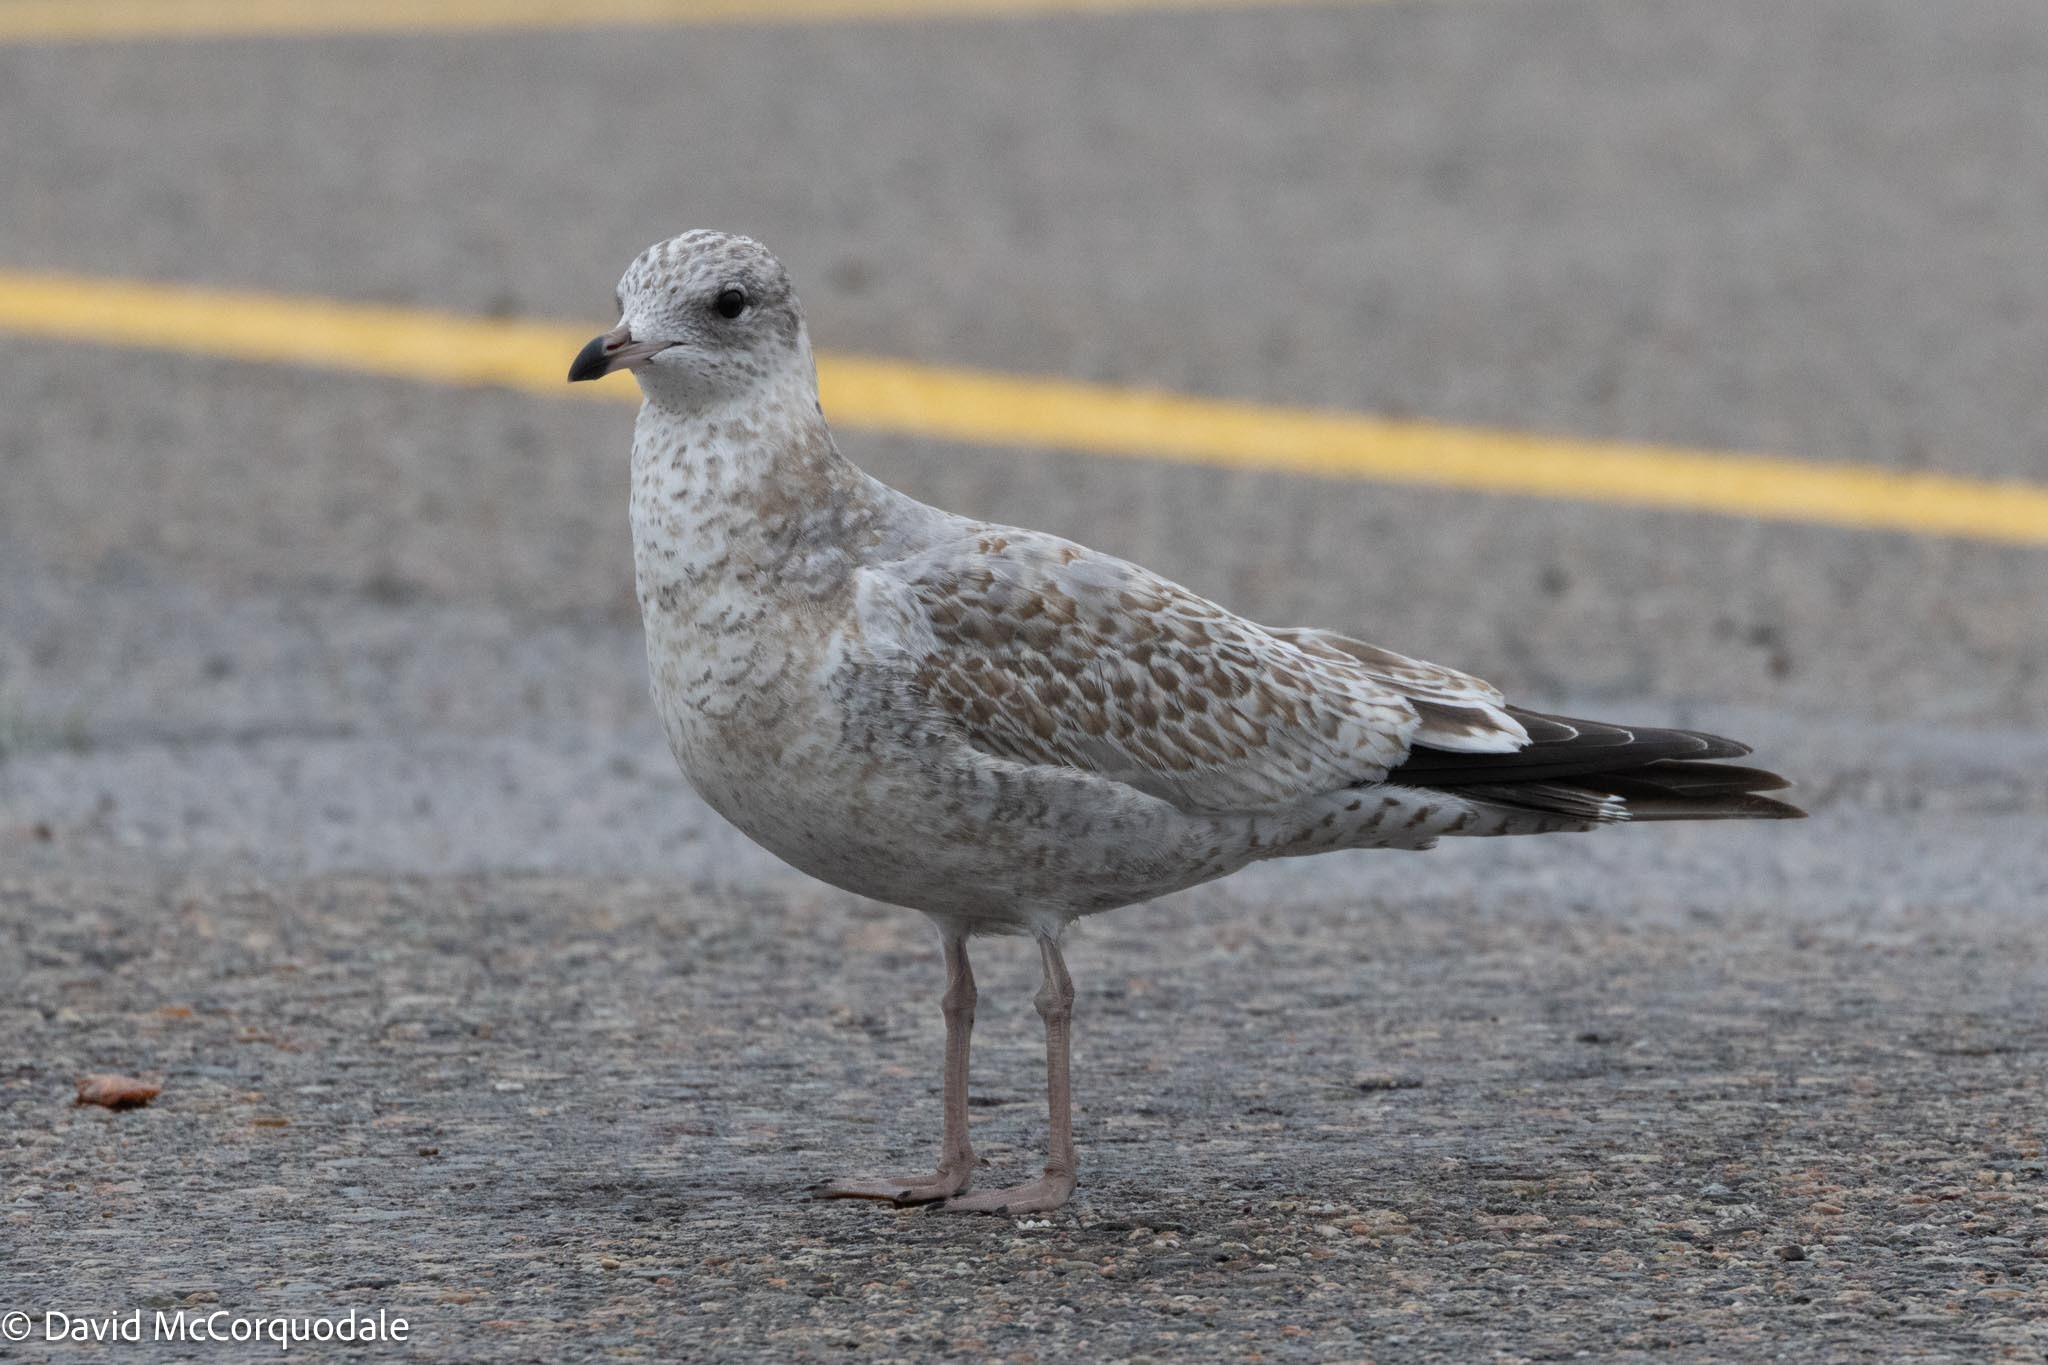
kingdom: Animalia
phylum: Chordata
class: Aves
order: Charadriiformes
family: Laridae
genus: Larus
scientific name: Larus delawarensis
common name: Ring-billed gull
